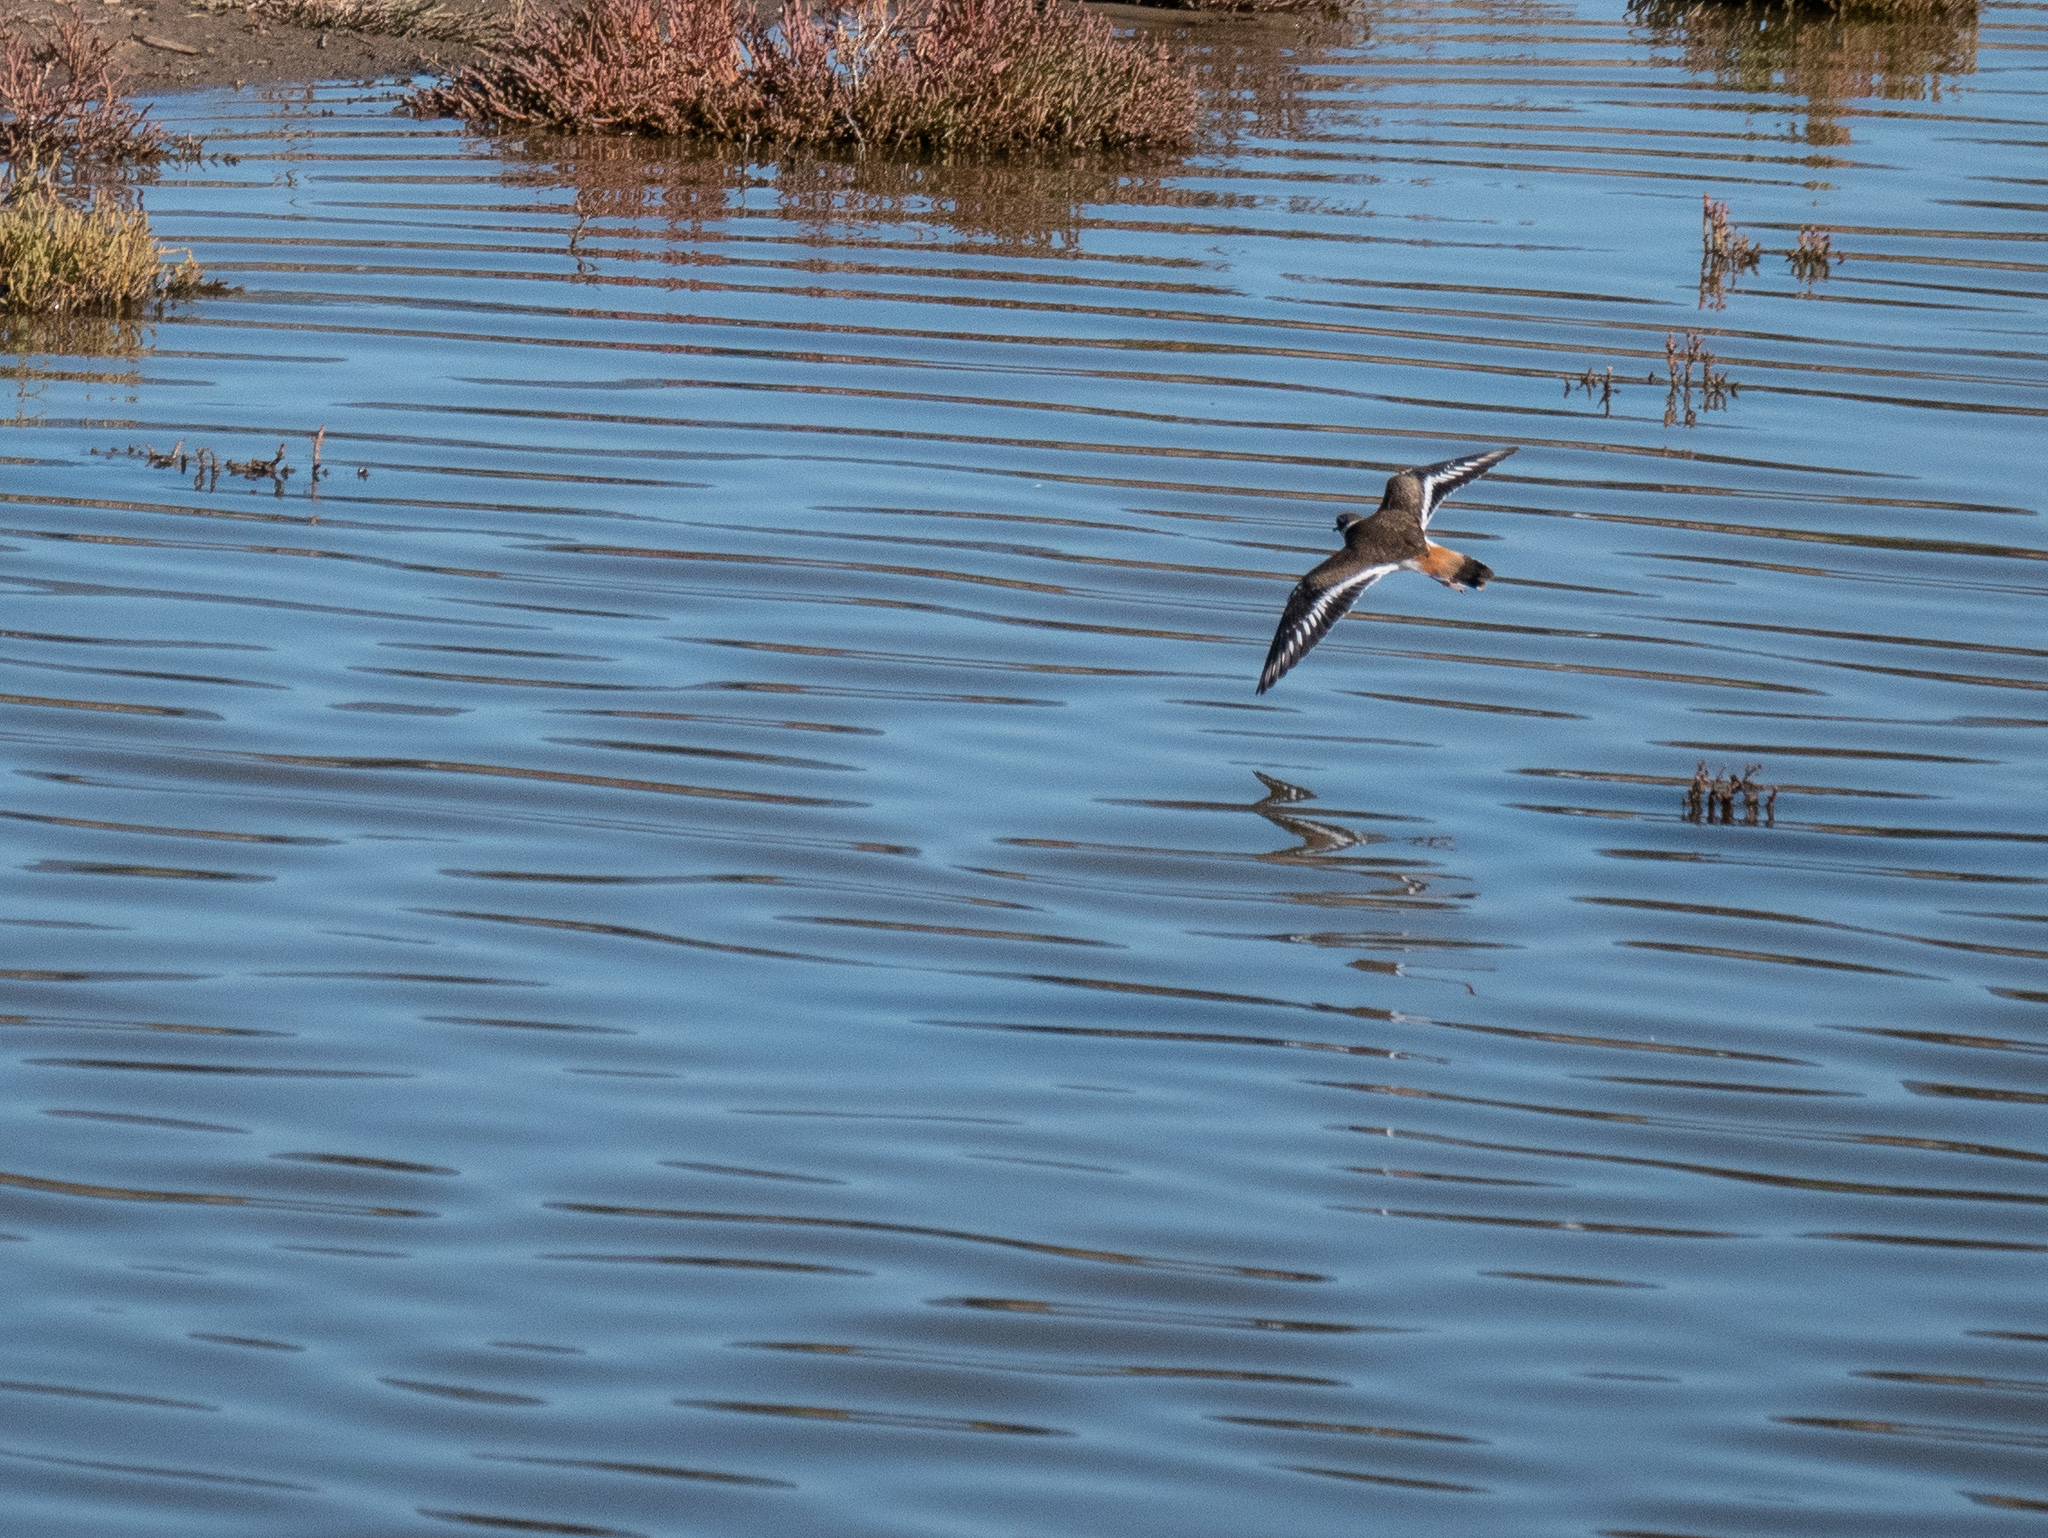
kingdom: Animalia
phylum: Chordata
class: Aves
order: Charadriiformes
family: Charadriidae
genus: Charadrius
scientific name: Charadrius vociferus
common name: Killdeer
